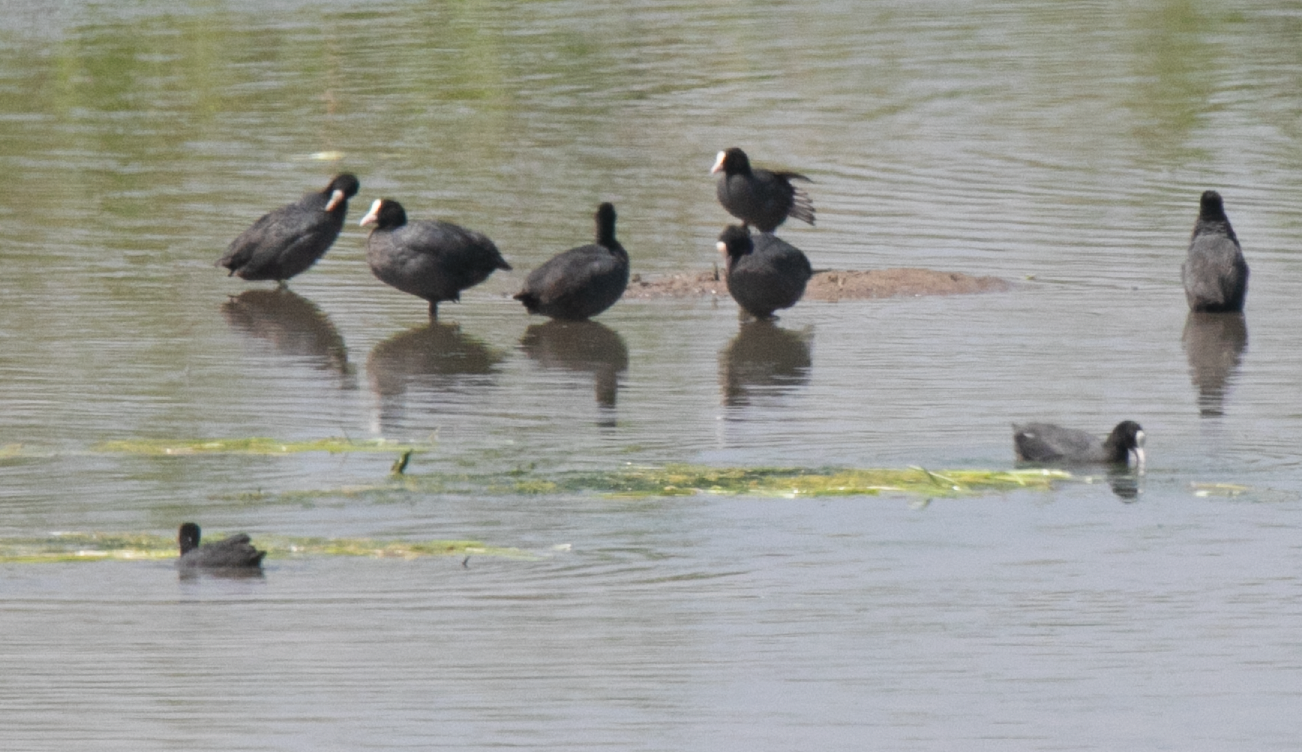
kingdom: Animalia
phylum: Chordata
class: Aves
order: Gruiformes
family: Rallidae
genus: Fulica
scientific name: Fulica atra
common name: Eurasian coot
